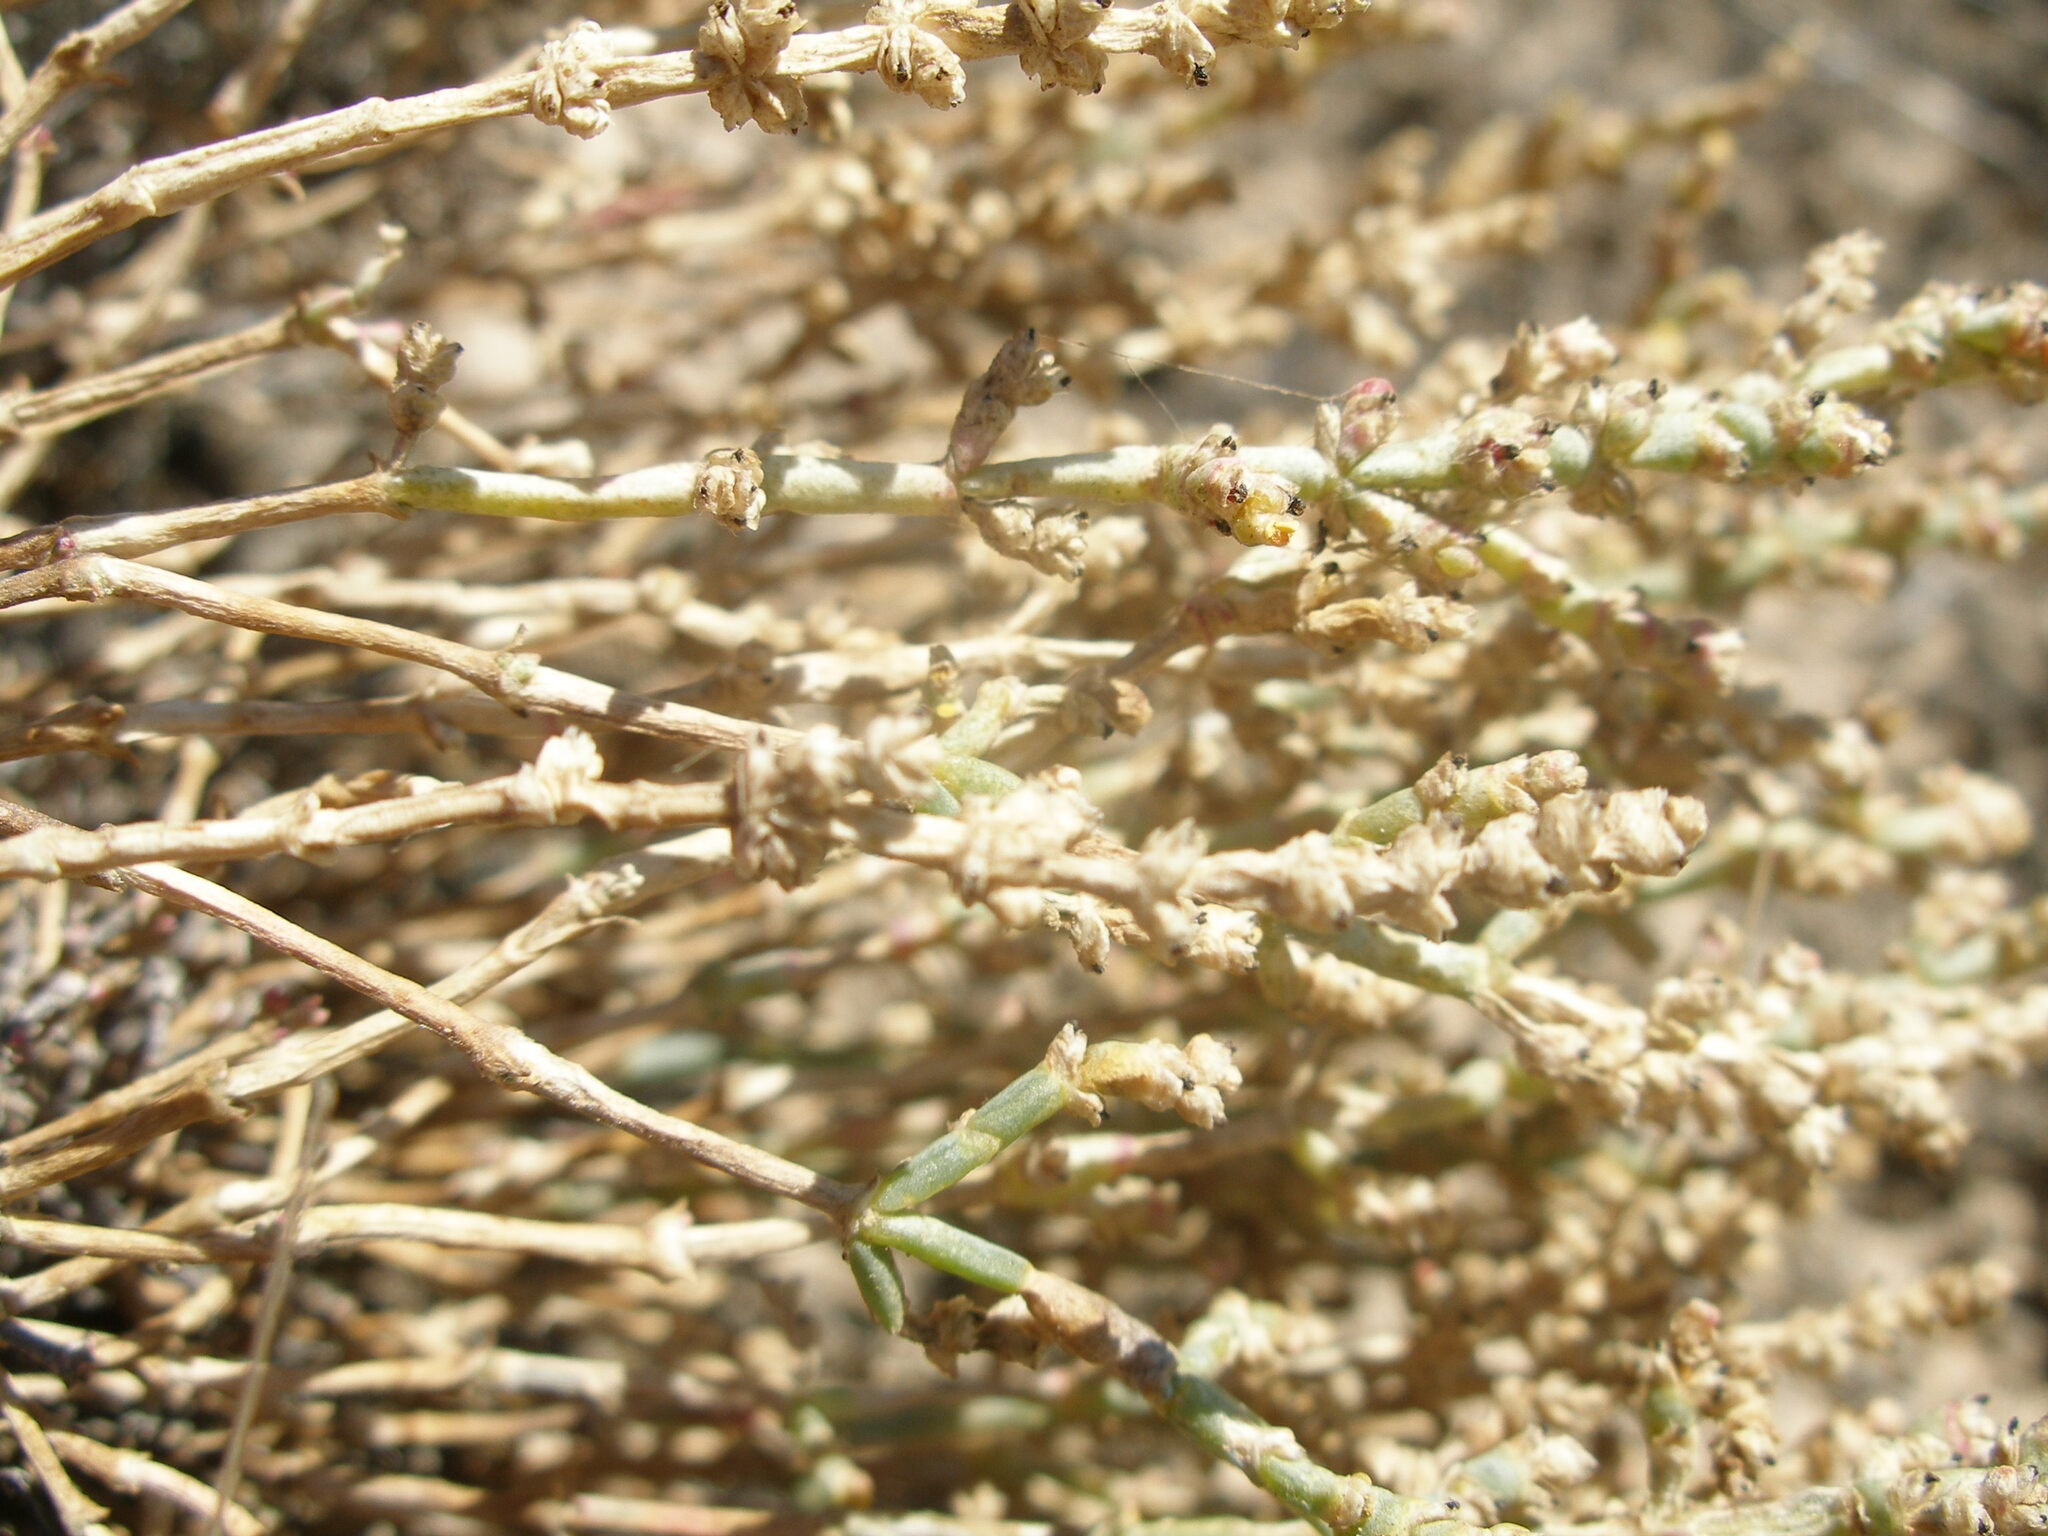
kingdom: Plantae
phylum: Tracheophyta
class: Magnoliopsida
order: Caryophyllales
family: Amaranthaceae
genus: Anabasis
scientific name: Anabasis salsa
